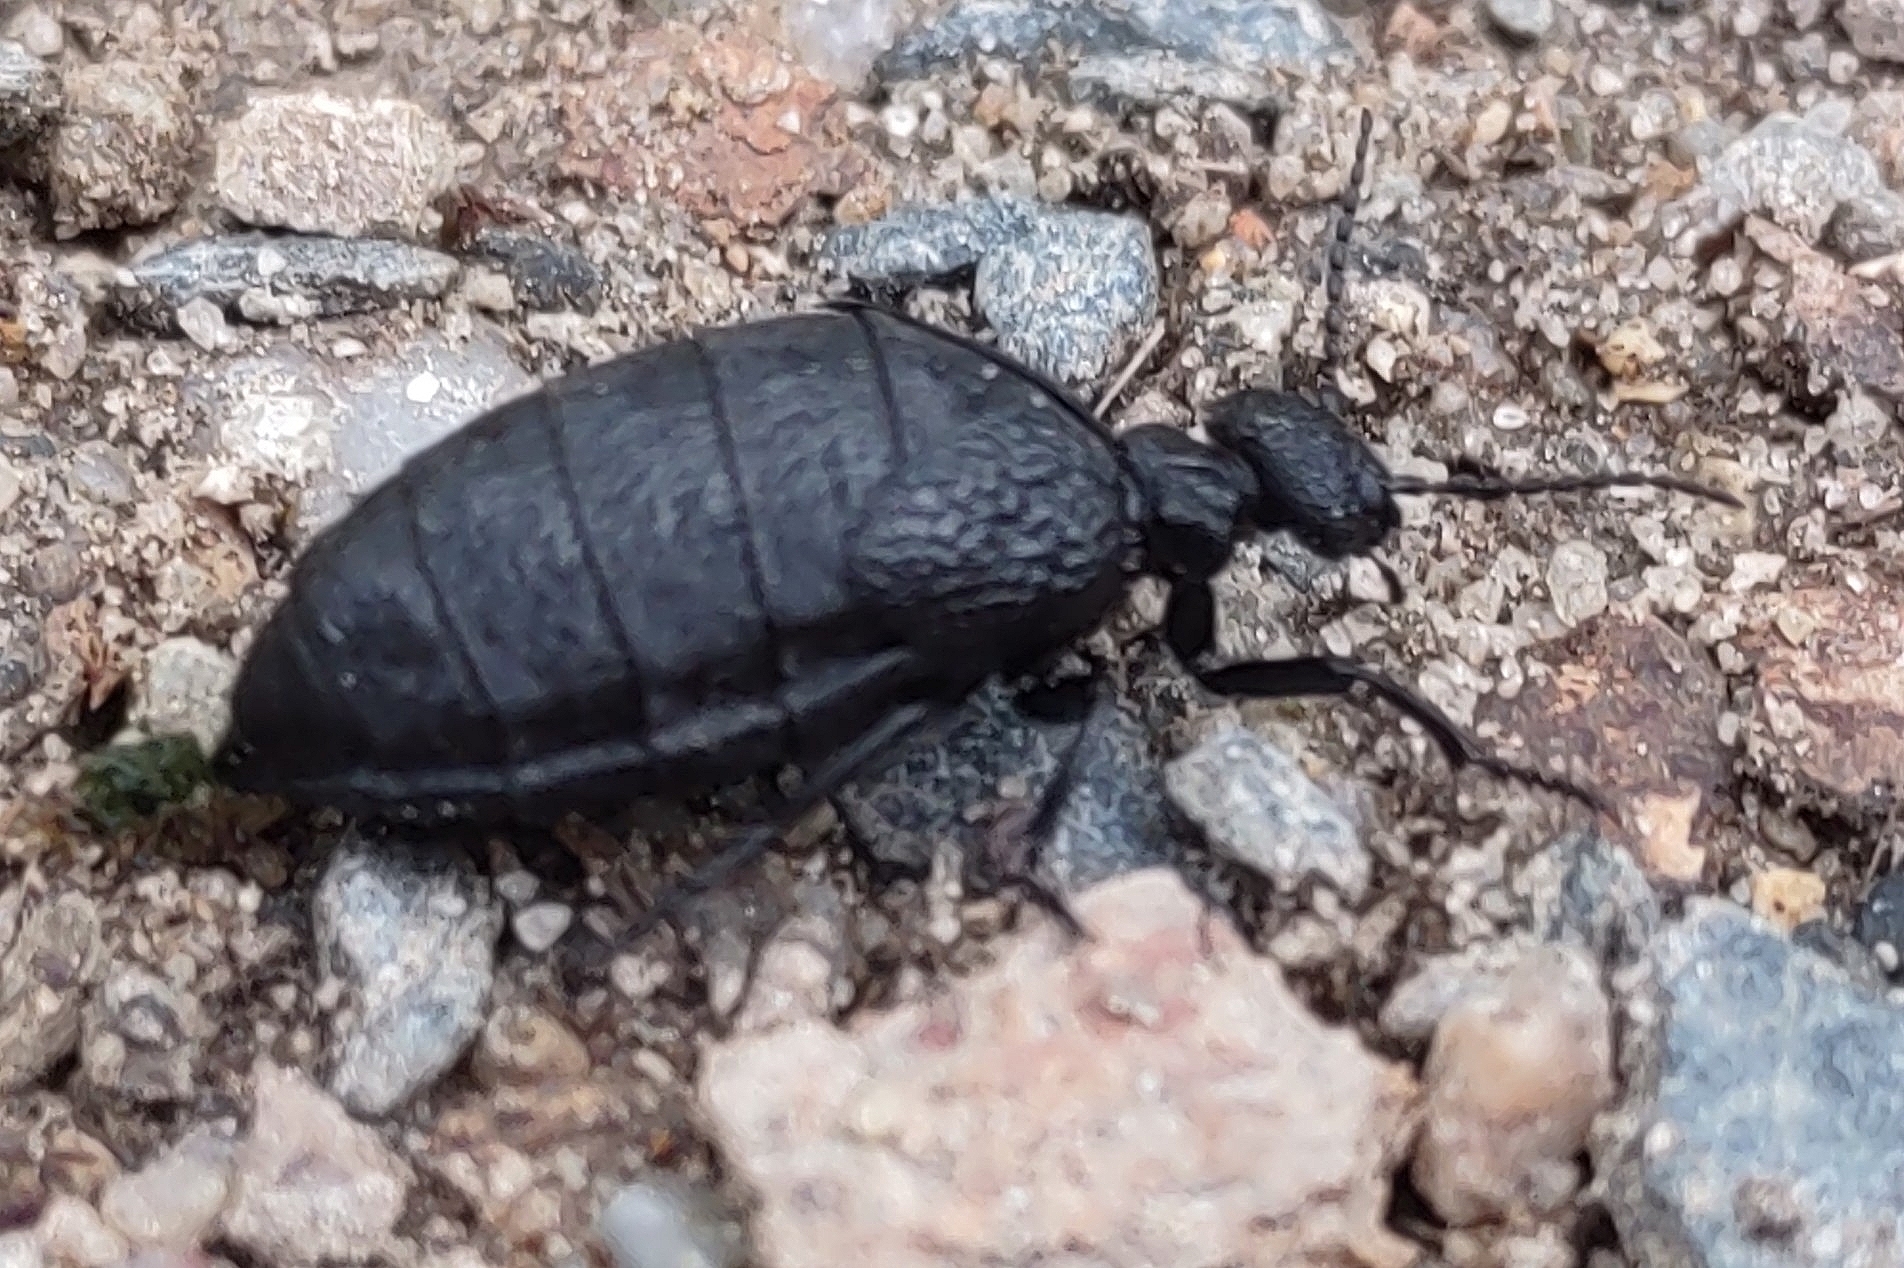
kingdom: Animalia
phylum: Arthropoda
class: Insecta
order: Coleoptera
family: Meloidae
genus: Meloe
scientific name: Meloe rugosus
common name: Rugged oil-beetle
